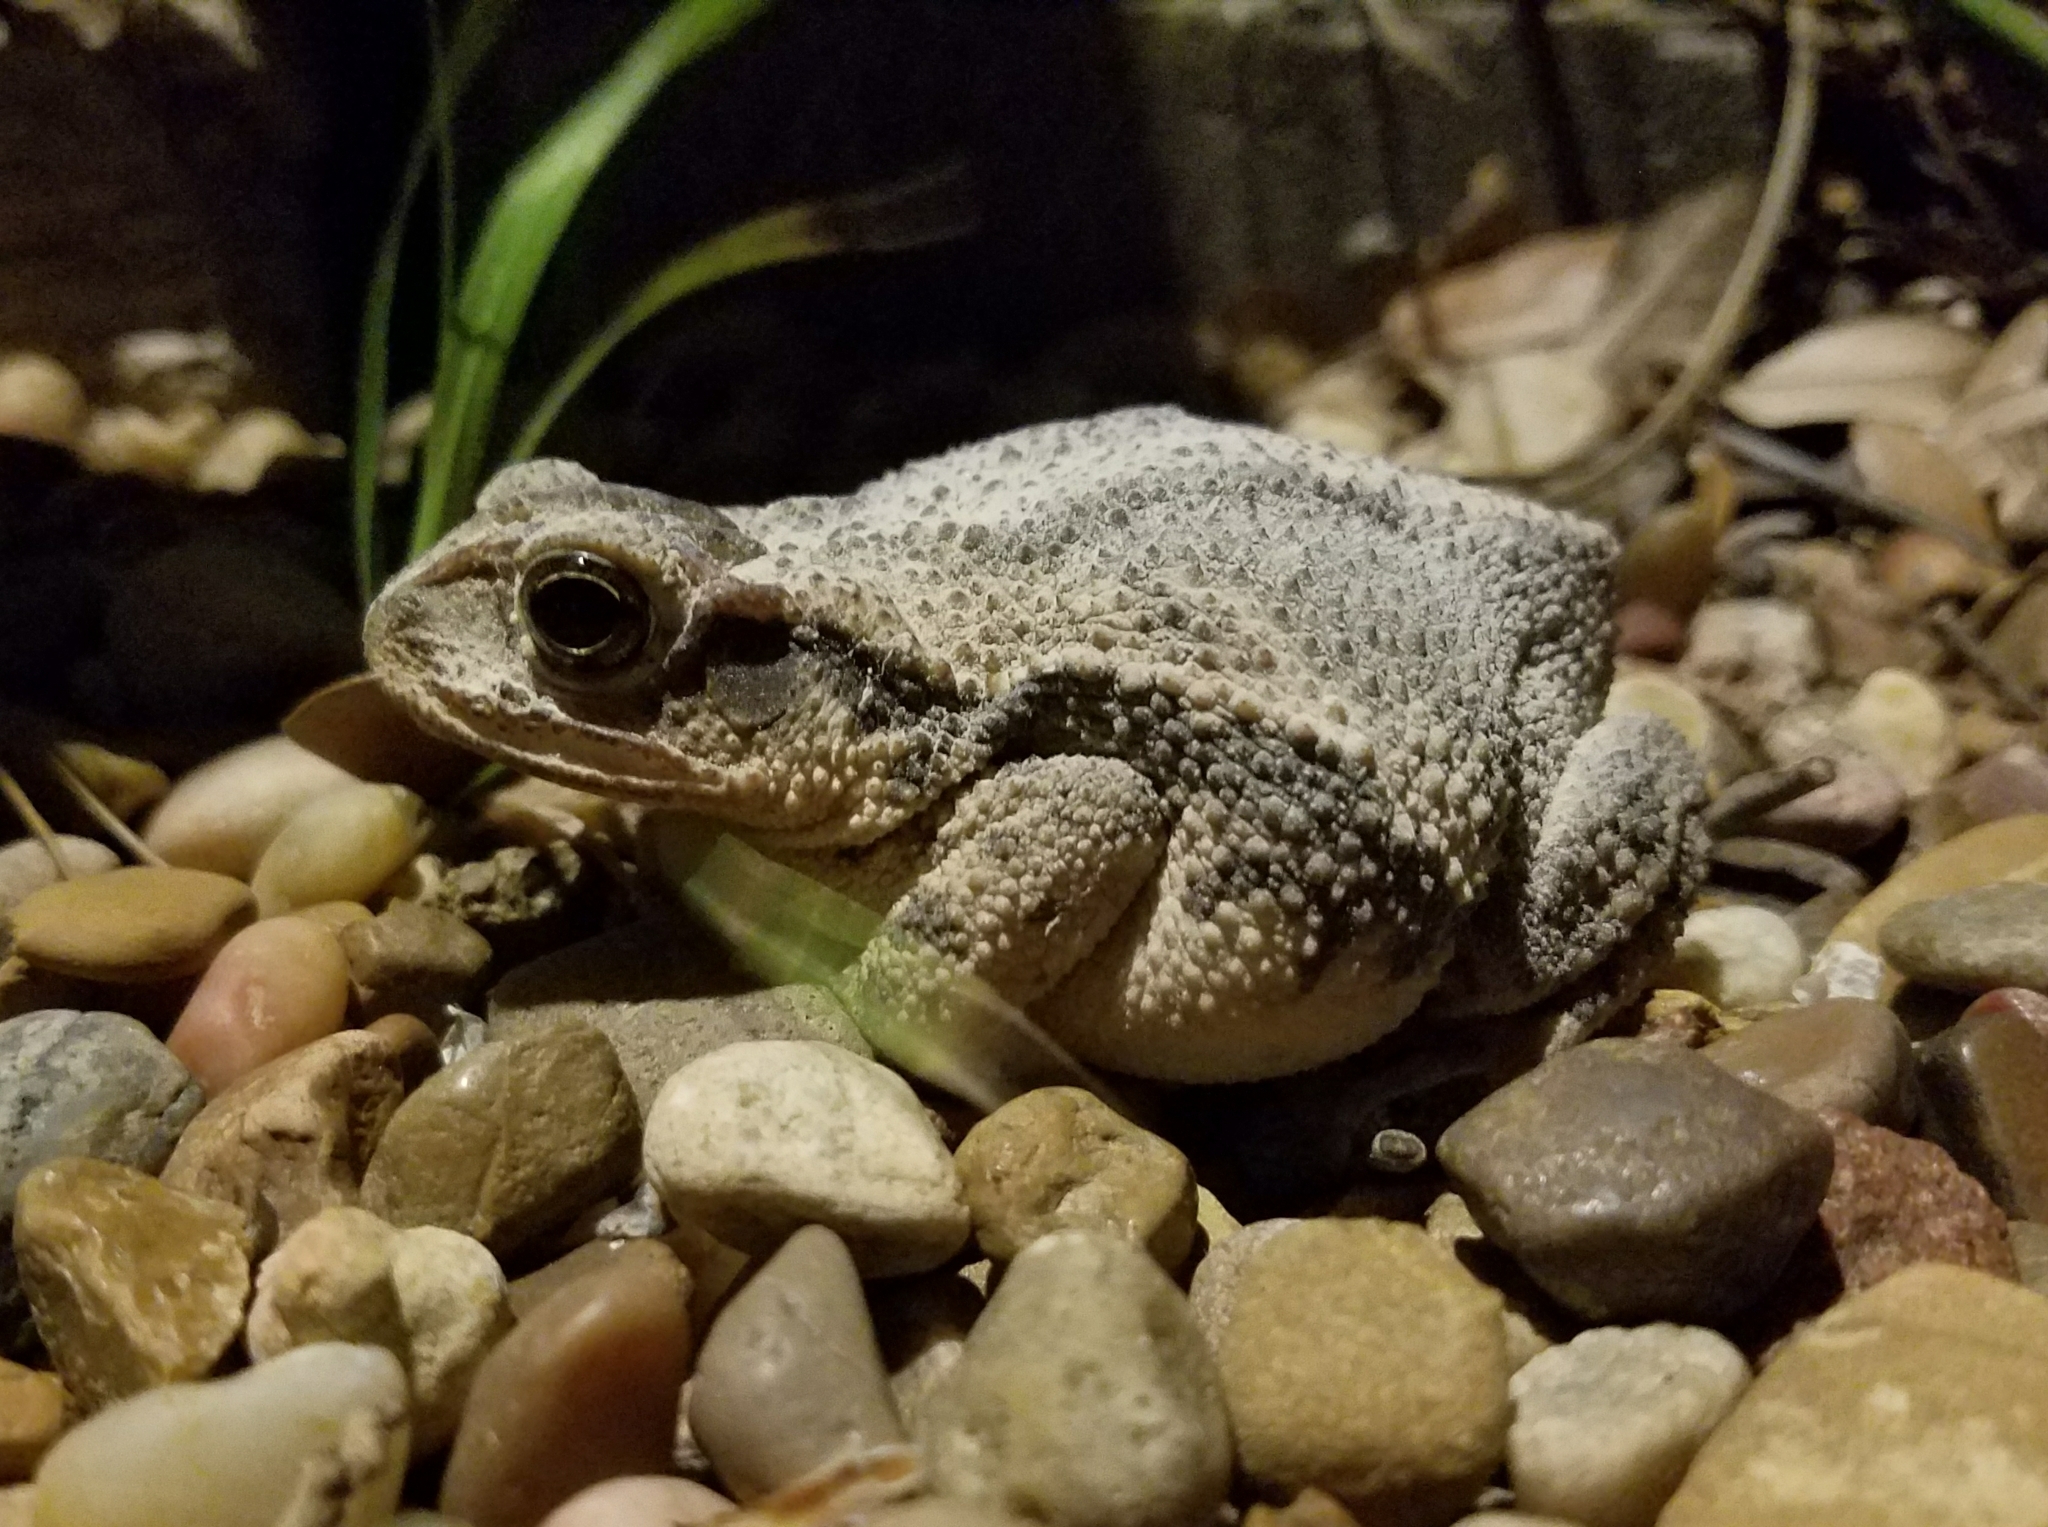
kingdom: Animalia
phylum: Chordata
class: Amphibia
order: Anura
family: Bufonidae
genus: Incilius
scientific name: Incilius nebulifer
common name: Gulf coast toad
